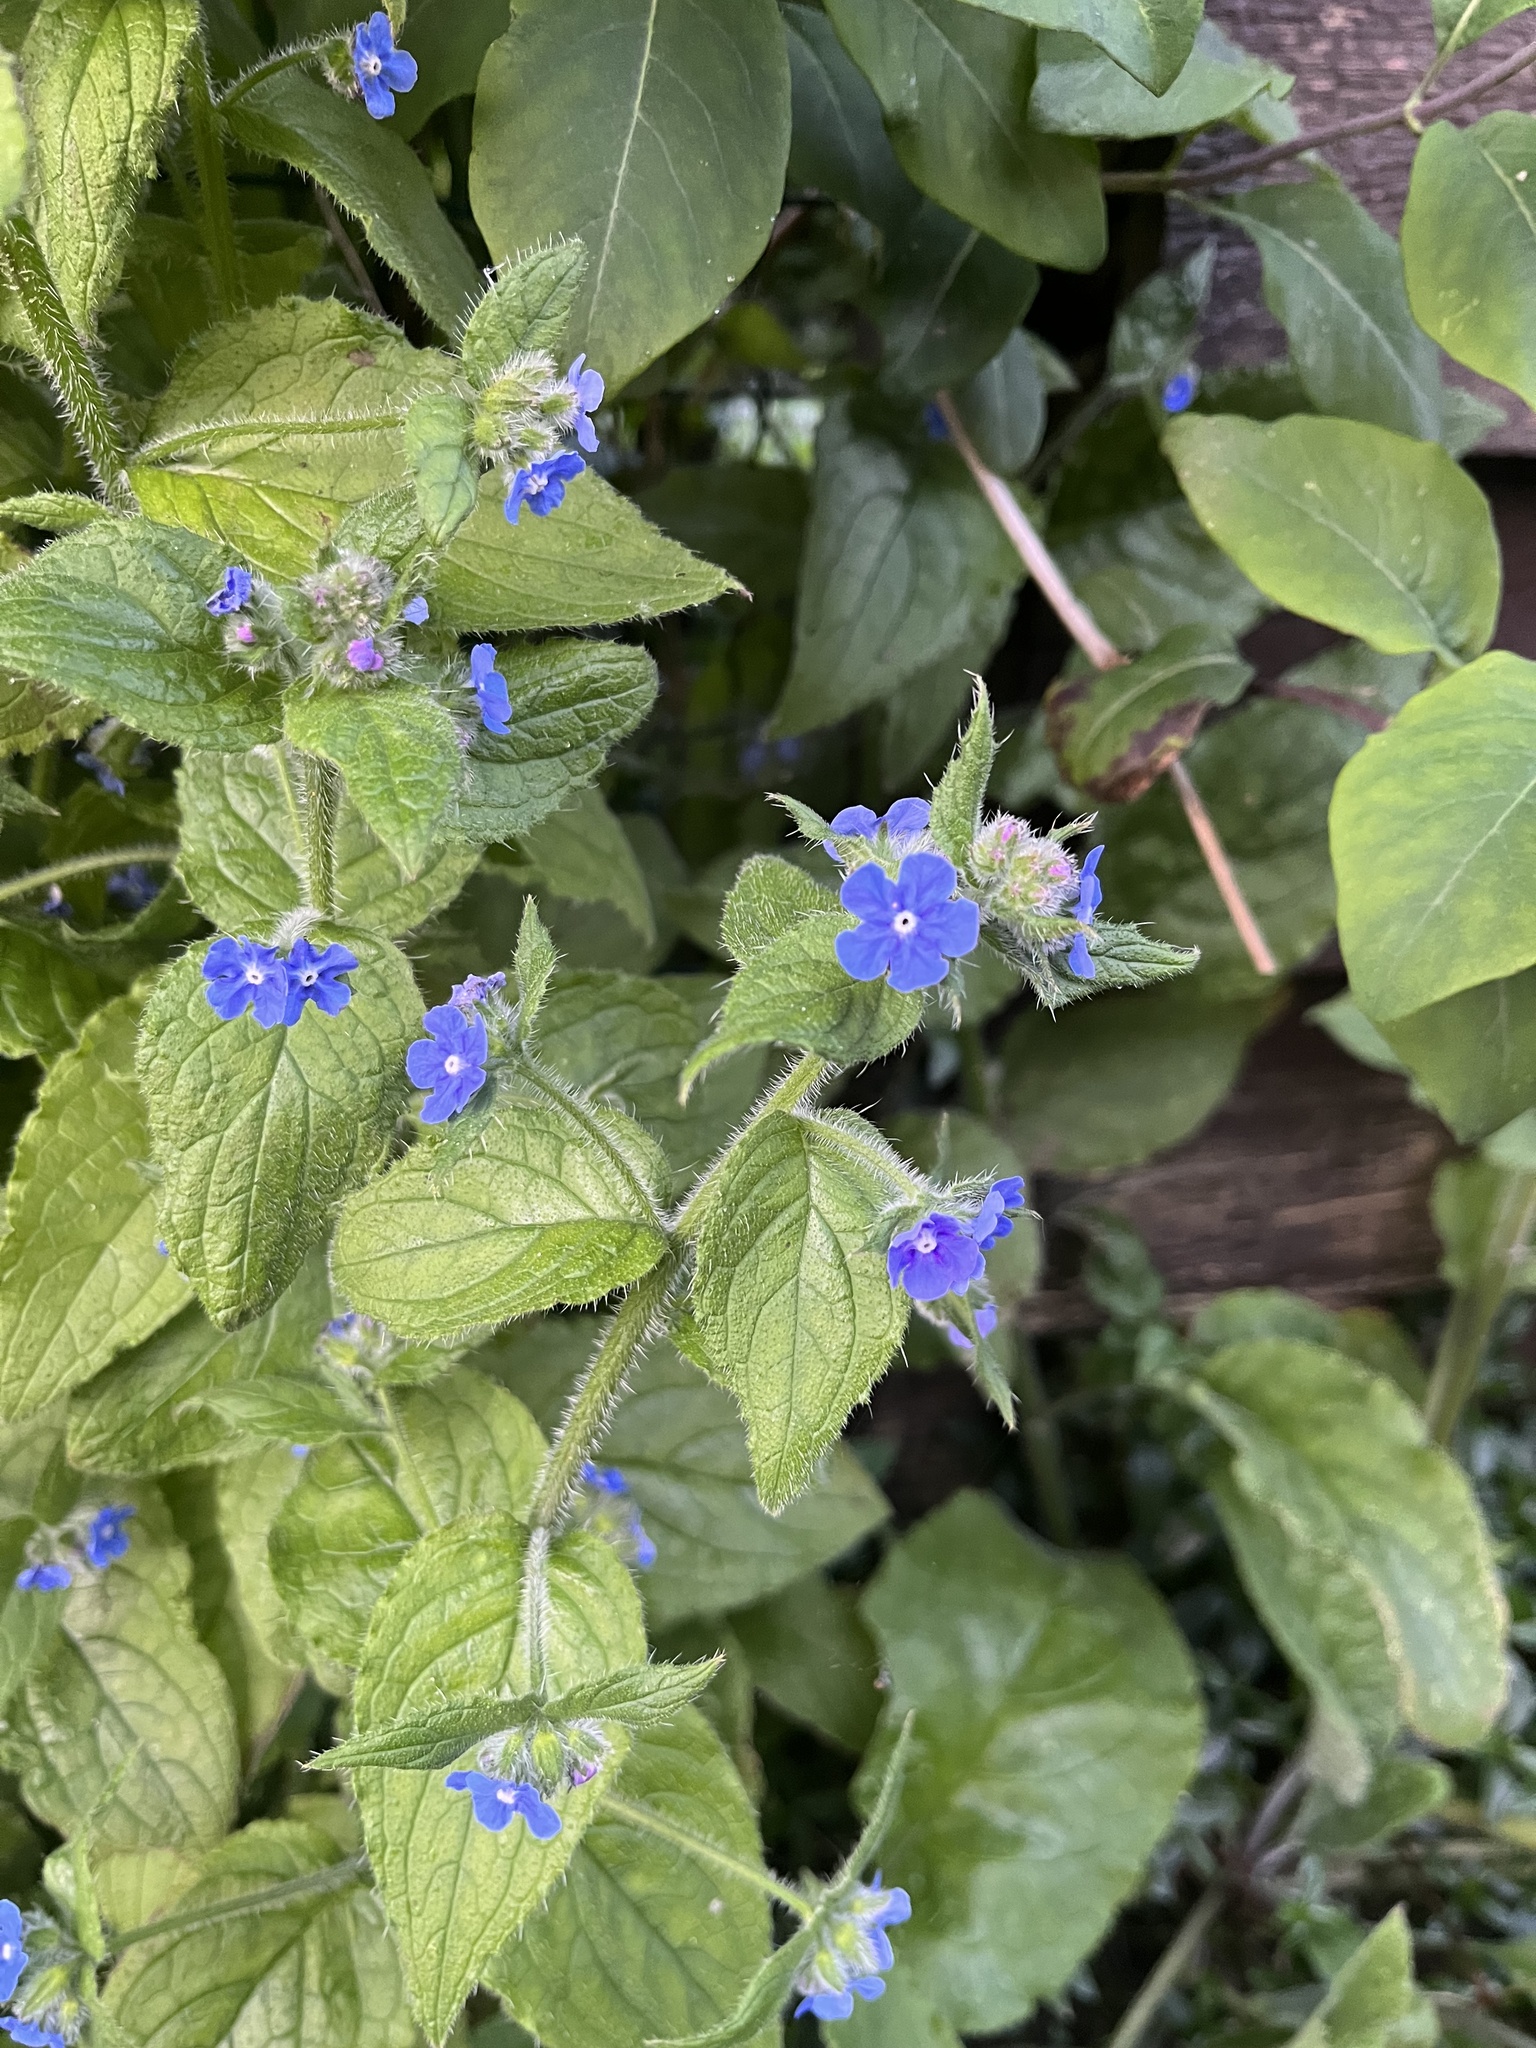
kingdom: Plantae
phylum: Tracheophyta
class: Magnoliopsida
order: Boraginales
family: Boraginaceae
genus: Pentaglottis
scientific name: Pentaglottis sempervirens
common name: Green alkanet
